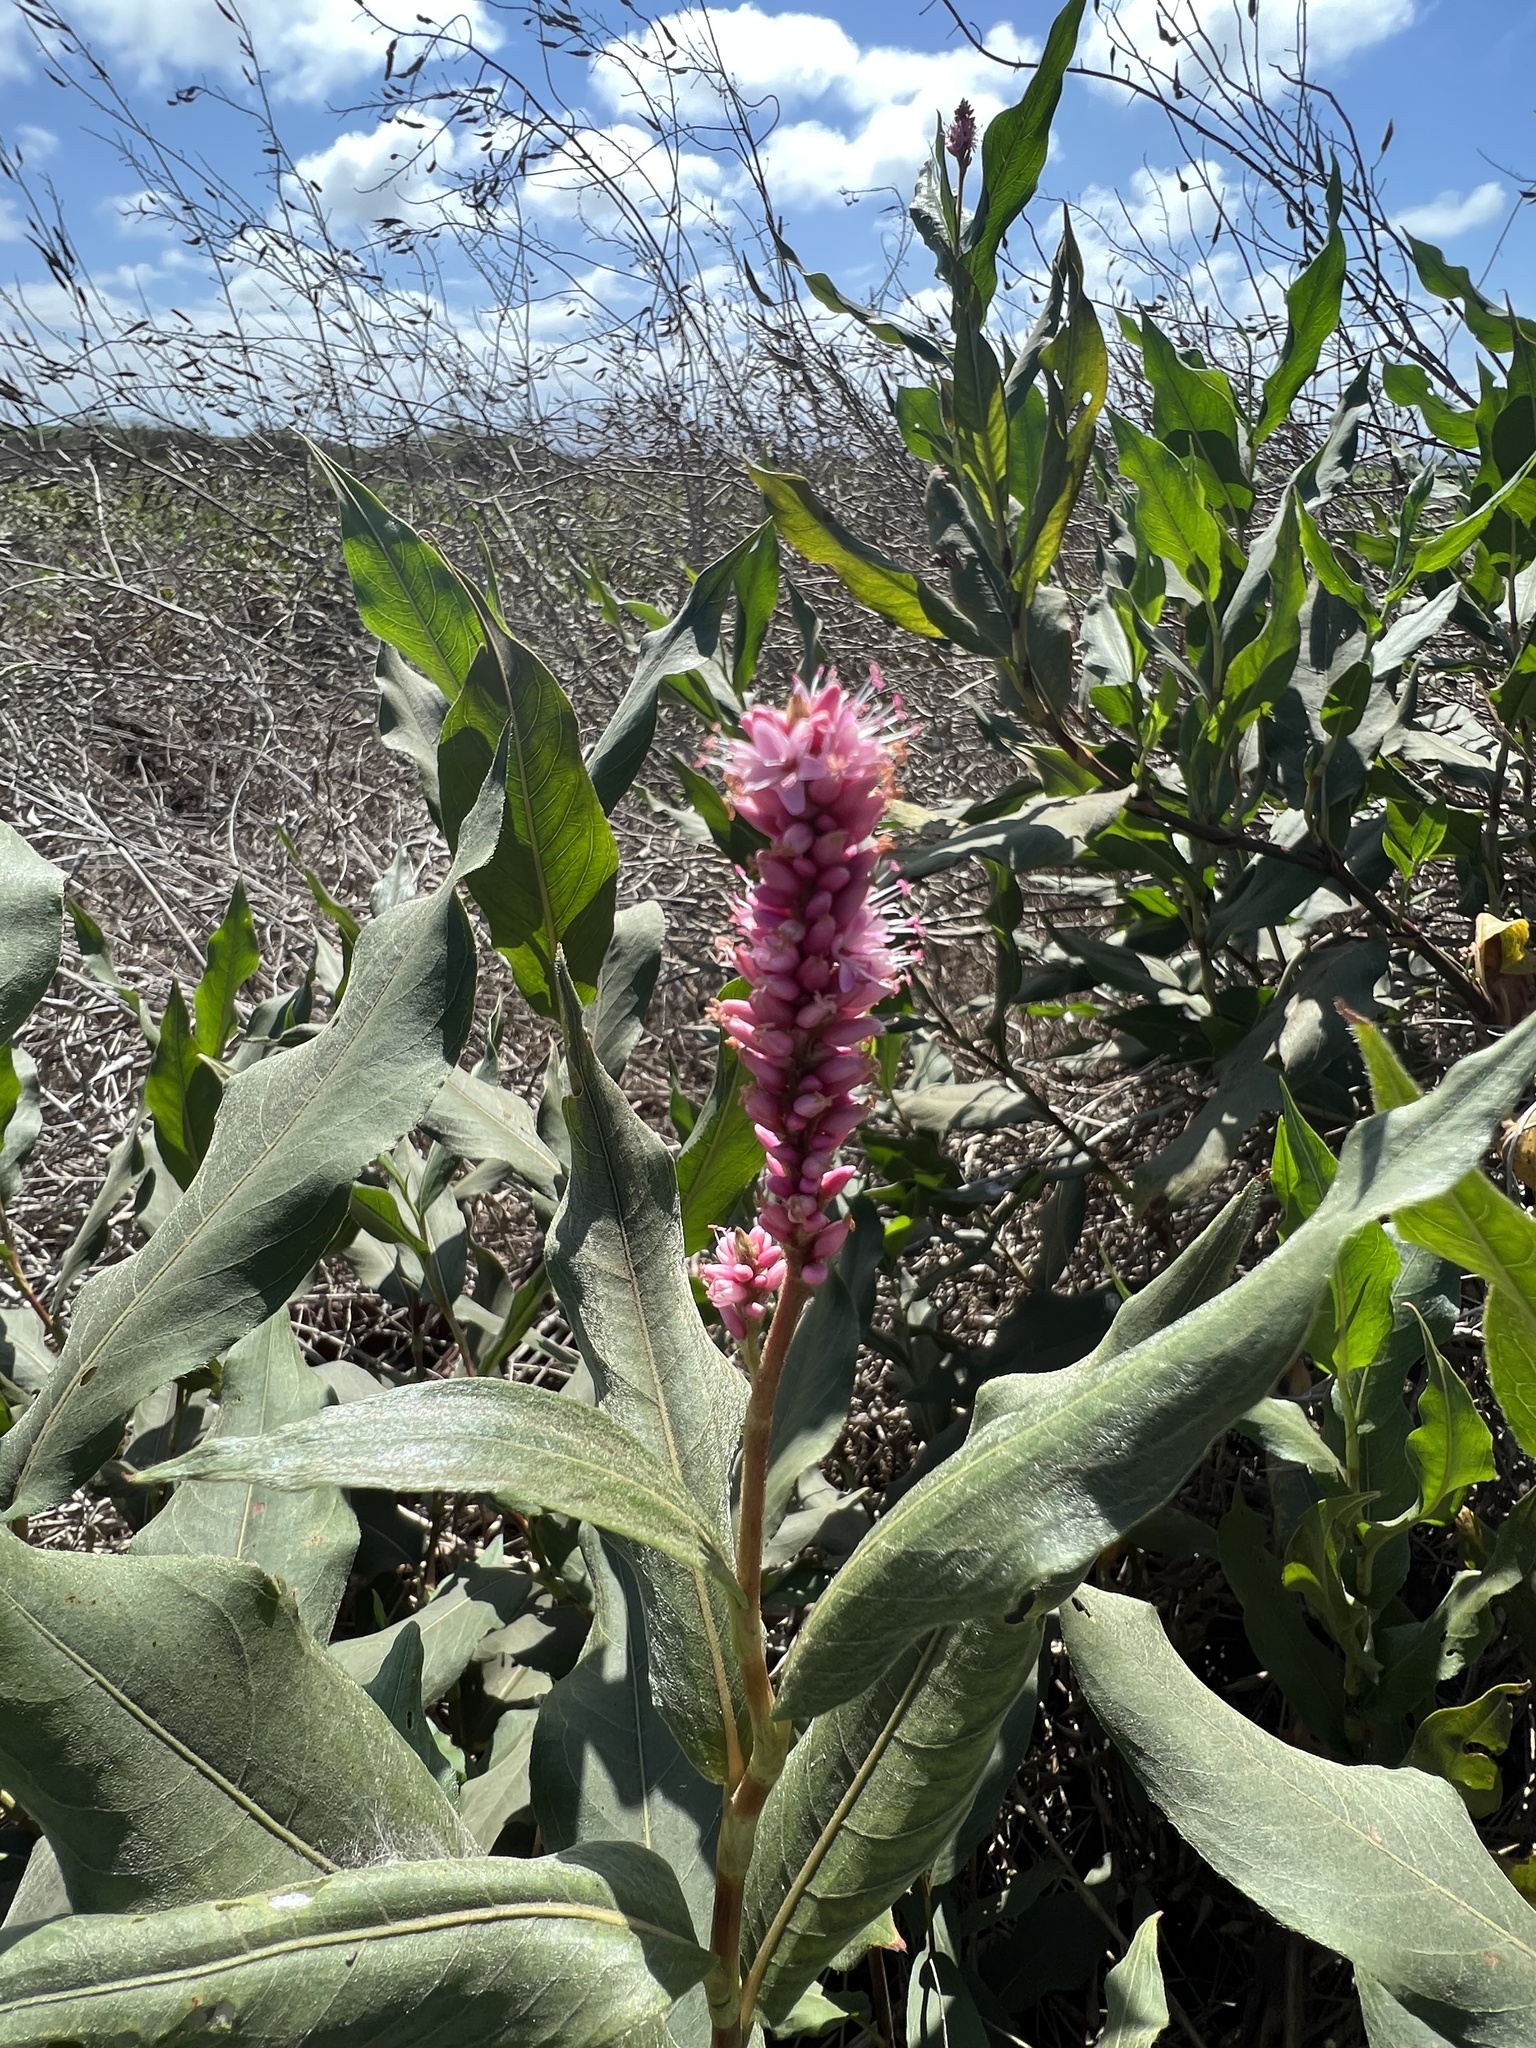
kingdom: Plantae
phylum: Tracheophyta
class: Magnoliopsida
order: Caryophyllales
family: Polygonaceae
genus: Persicaria
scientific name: Persicaria amphibia
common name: Amphibious bistort
